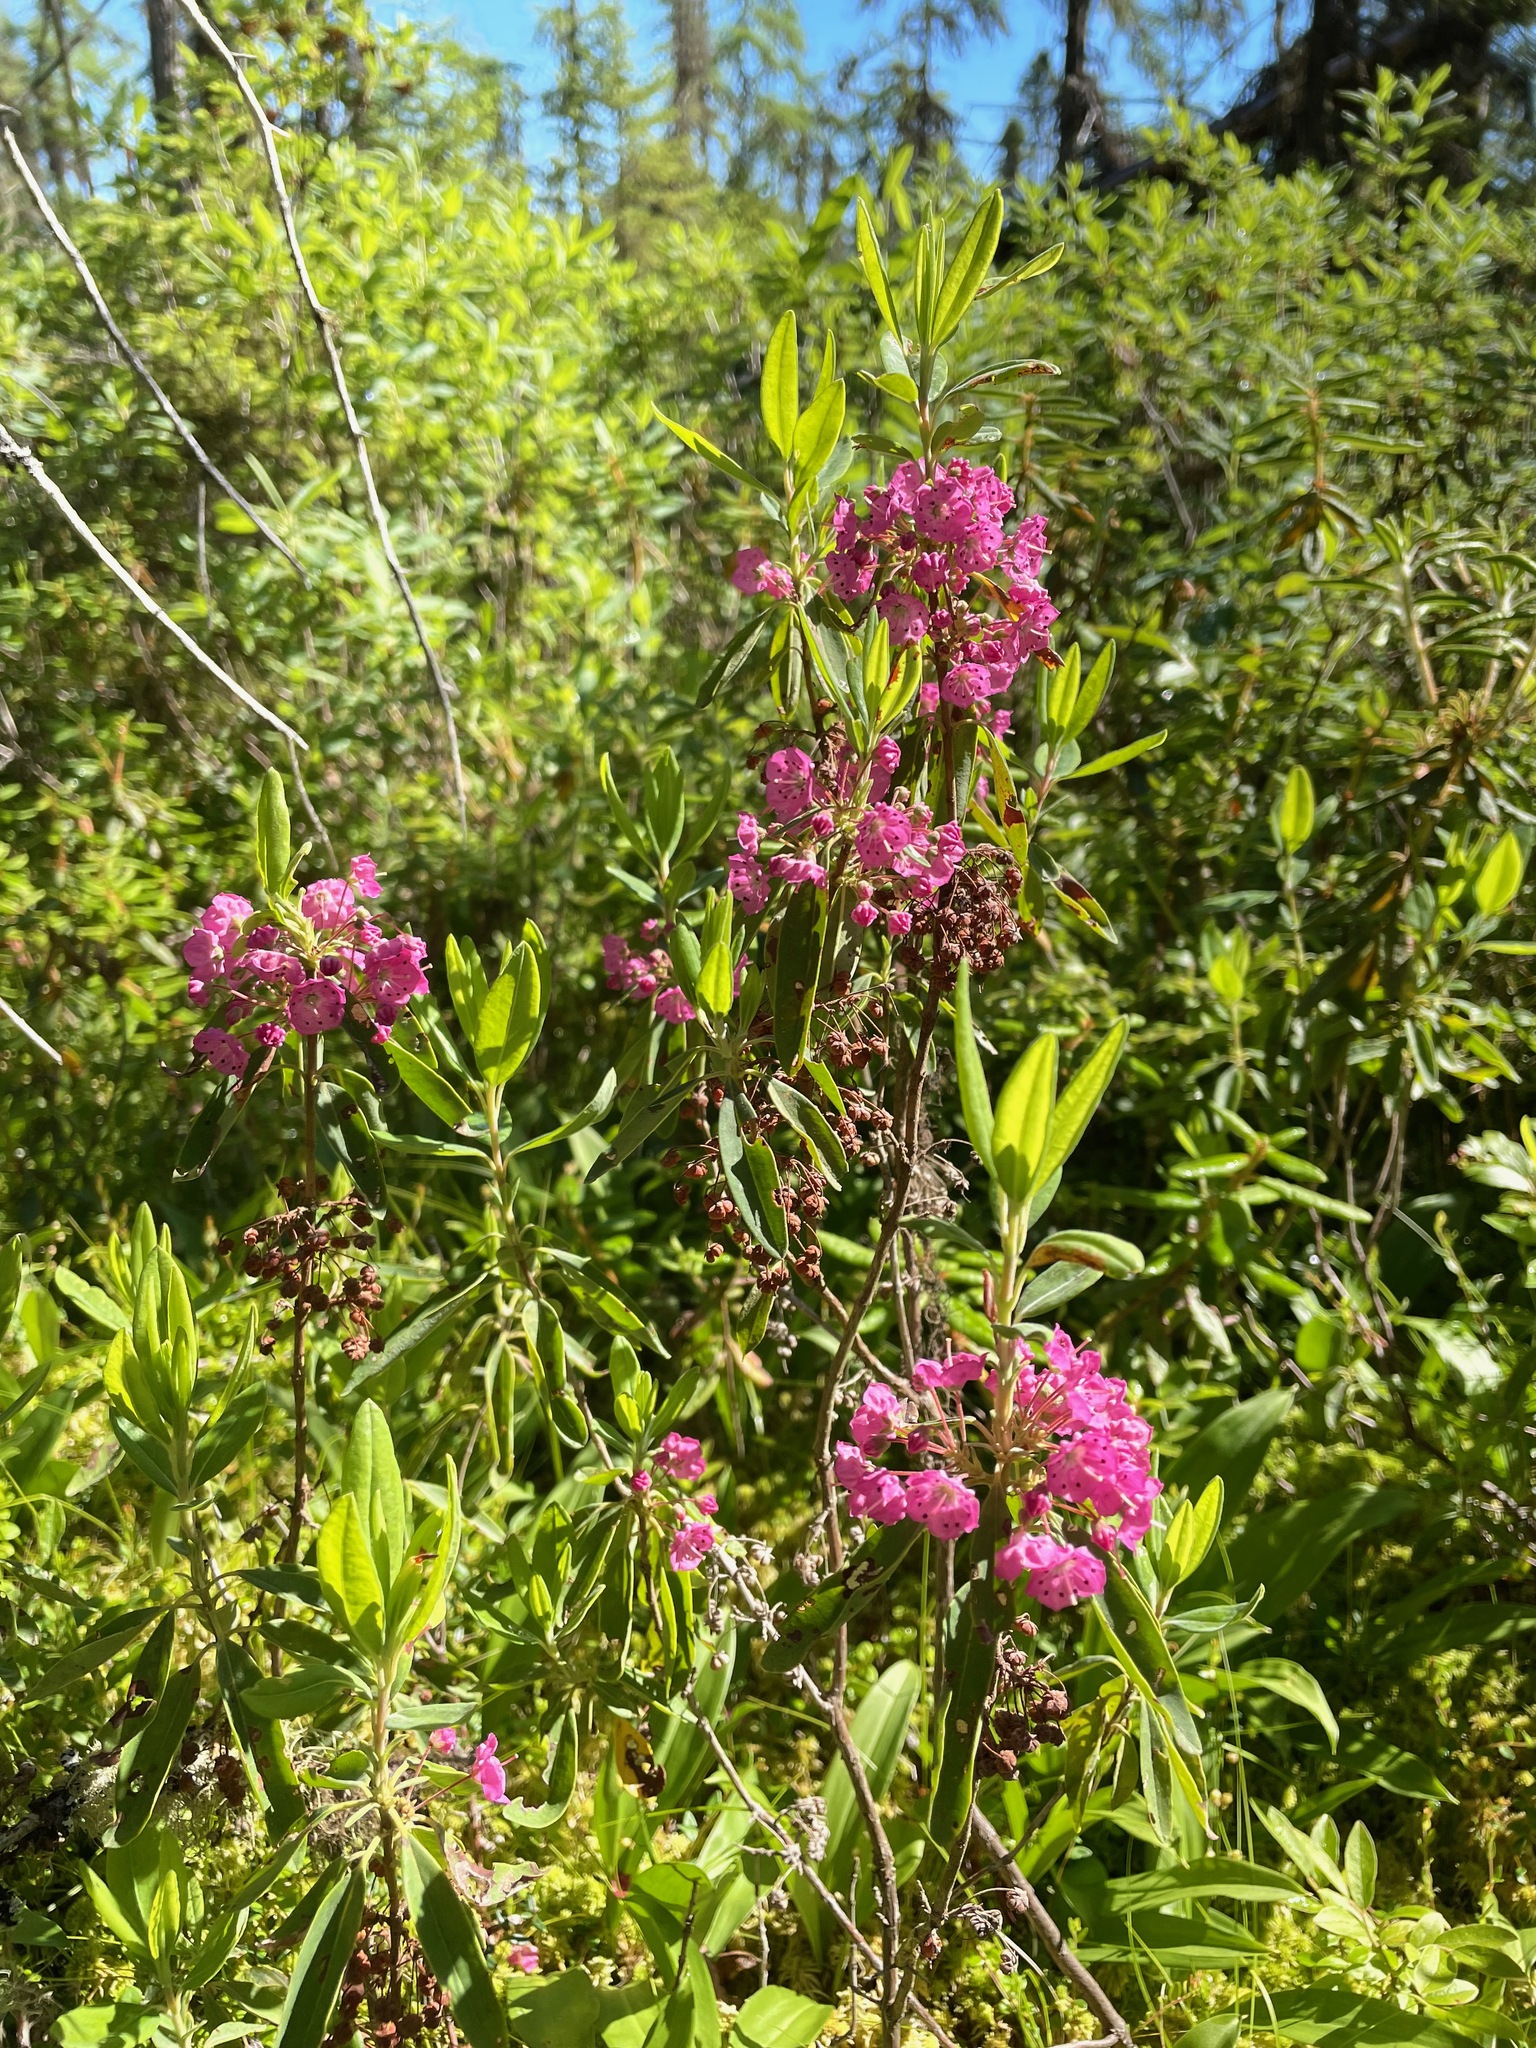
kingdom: Plantae
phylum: Tracheophyta
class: Magnoliopsida
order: Ericales
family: Ericaceae
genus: Kalmia
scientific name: Kalmia angustifolia
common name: Sheep-laurel
